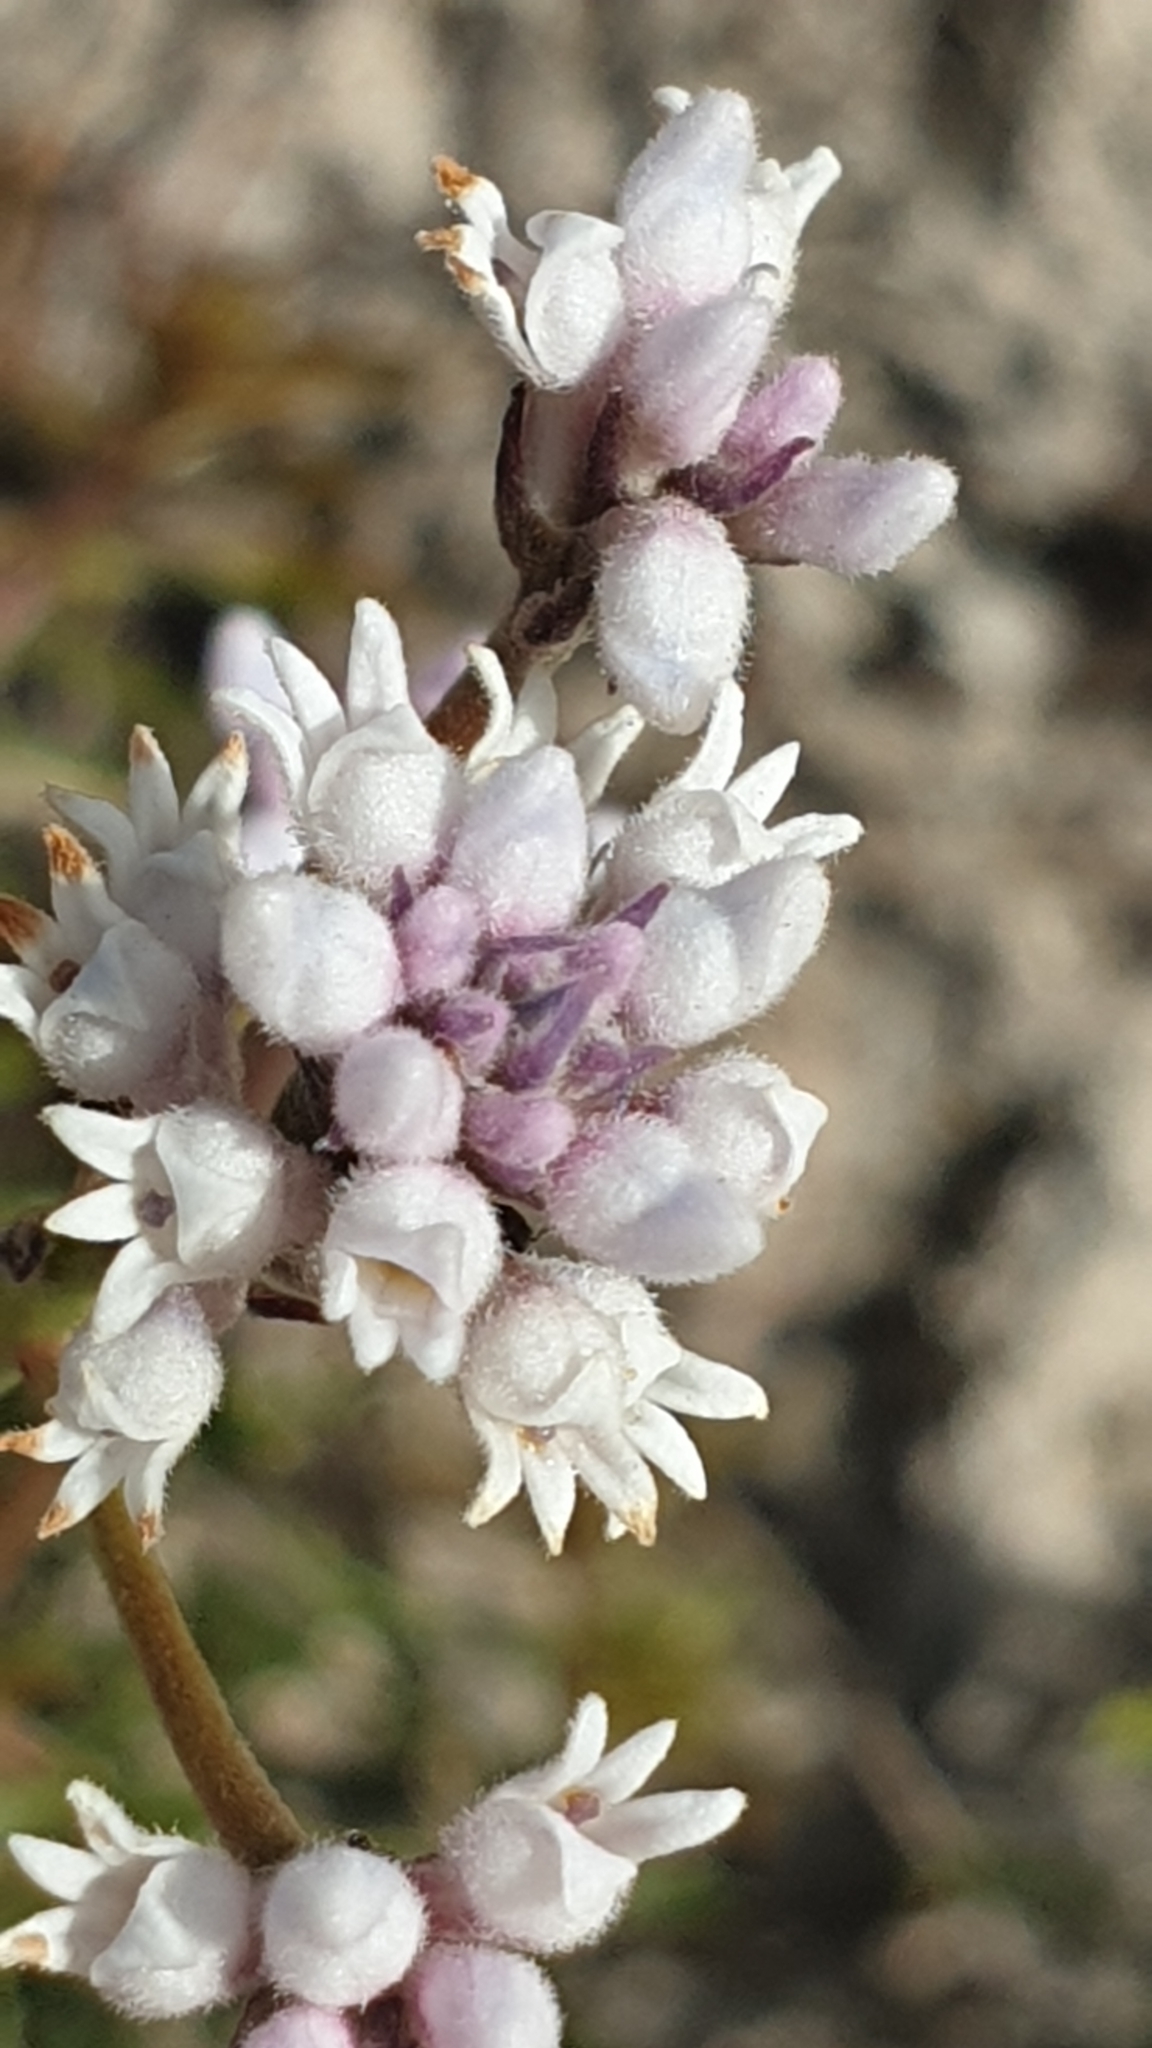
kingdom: Plantae
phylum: Tracheophyta
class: Magnoliopsida
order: Proteales
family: Proteaceae
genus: Conospermum
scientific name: Conospermum patens
